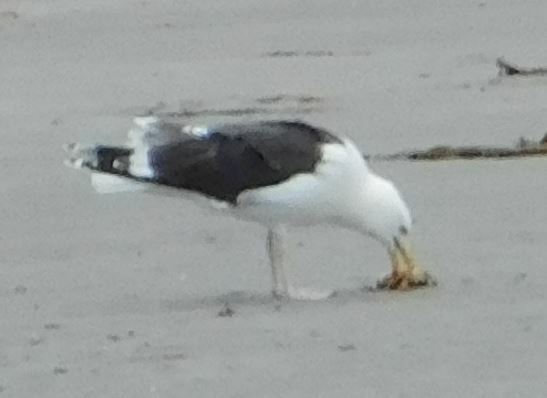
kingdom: Animalia
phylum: Chordata
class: Aves
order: Charadriiformes
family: Laridae
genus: Larus
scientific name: Larus marinus
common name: Great black-backed gull
